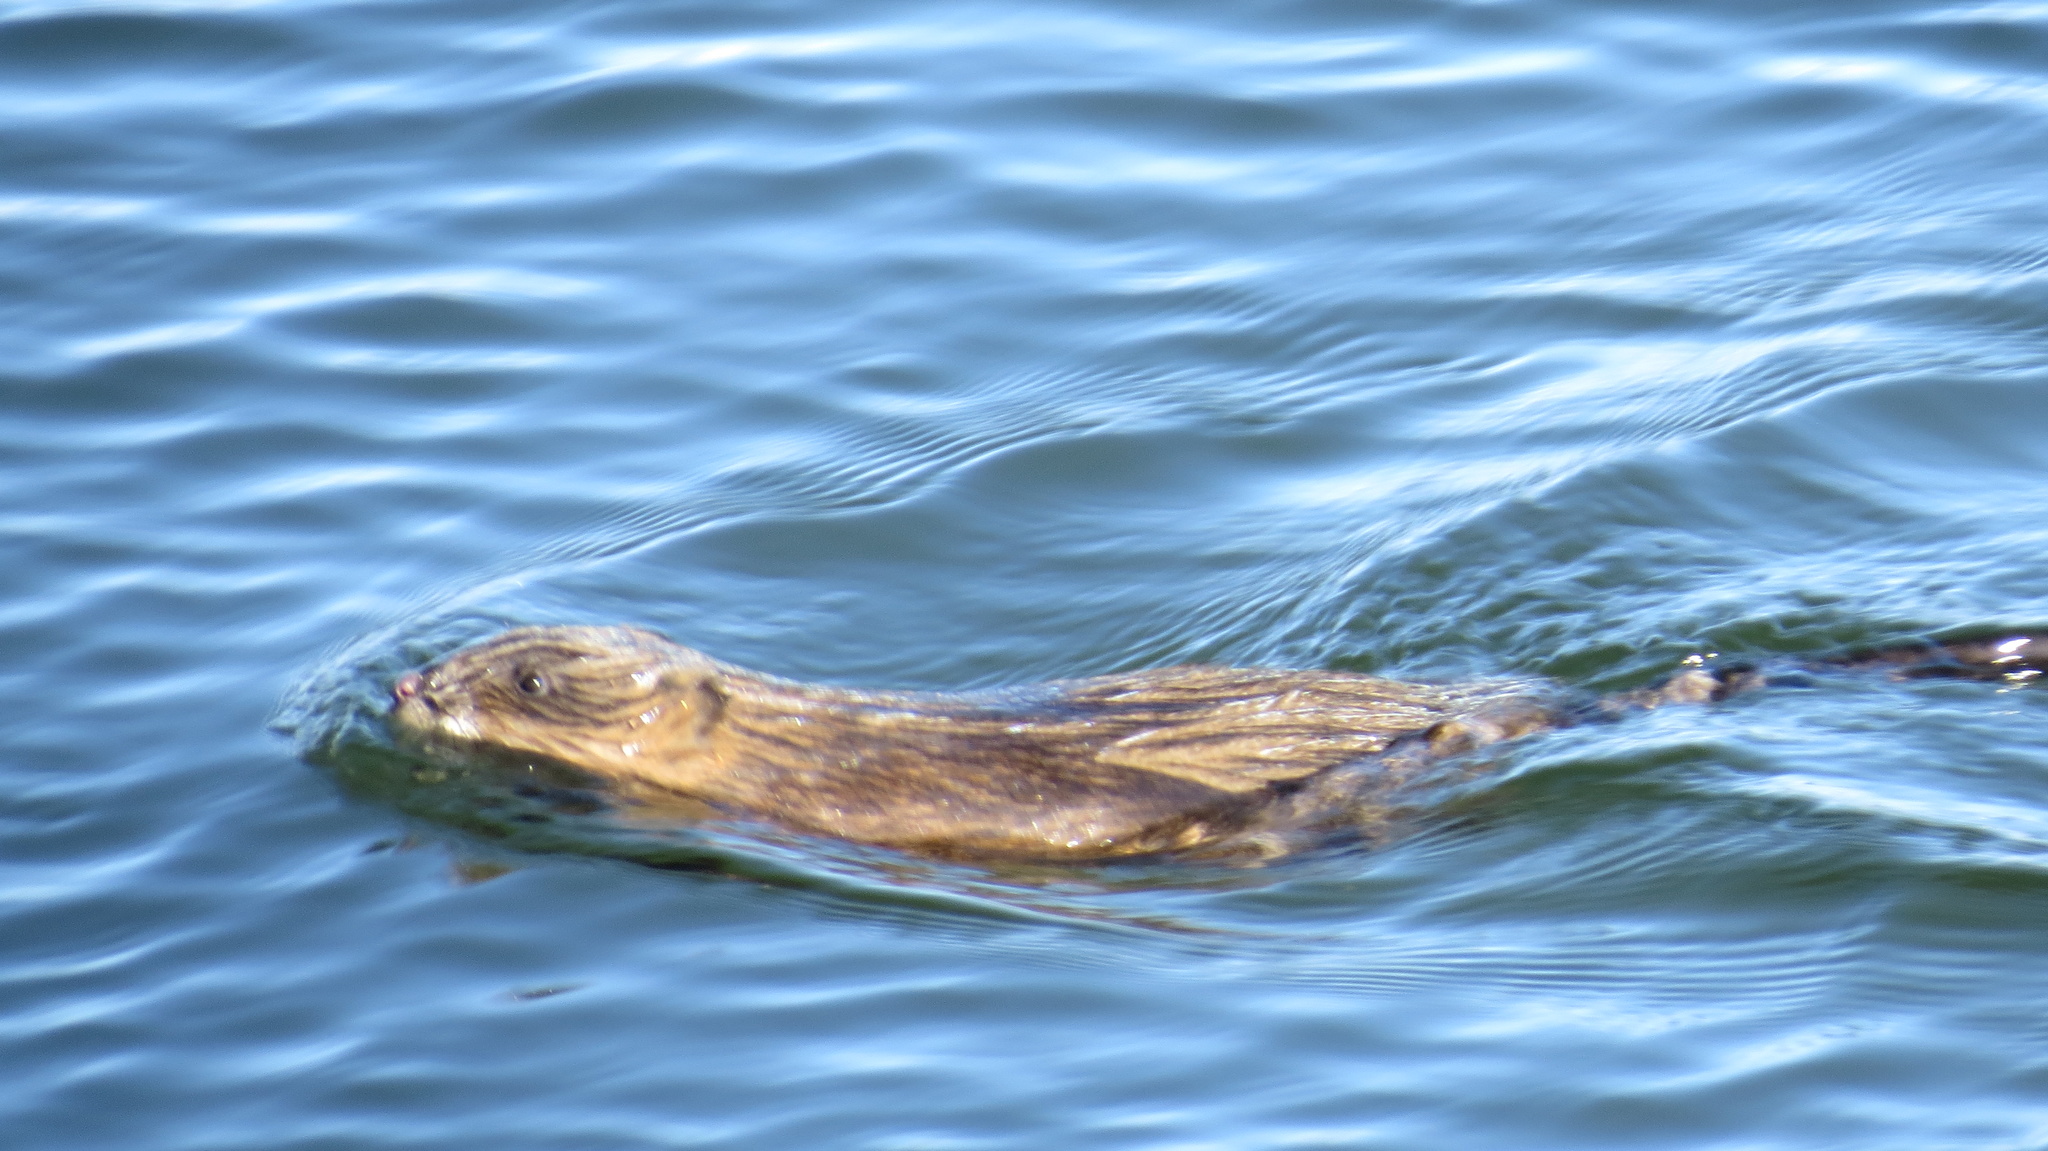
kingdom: Animalia
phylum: Chordata
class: Mammalia
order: Rodentia
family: Cricetidae
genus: Ondatra
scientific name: Ondatra zibethicus
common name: Muskrat
